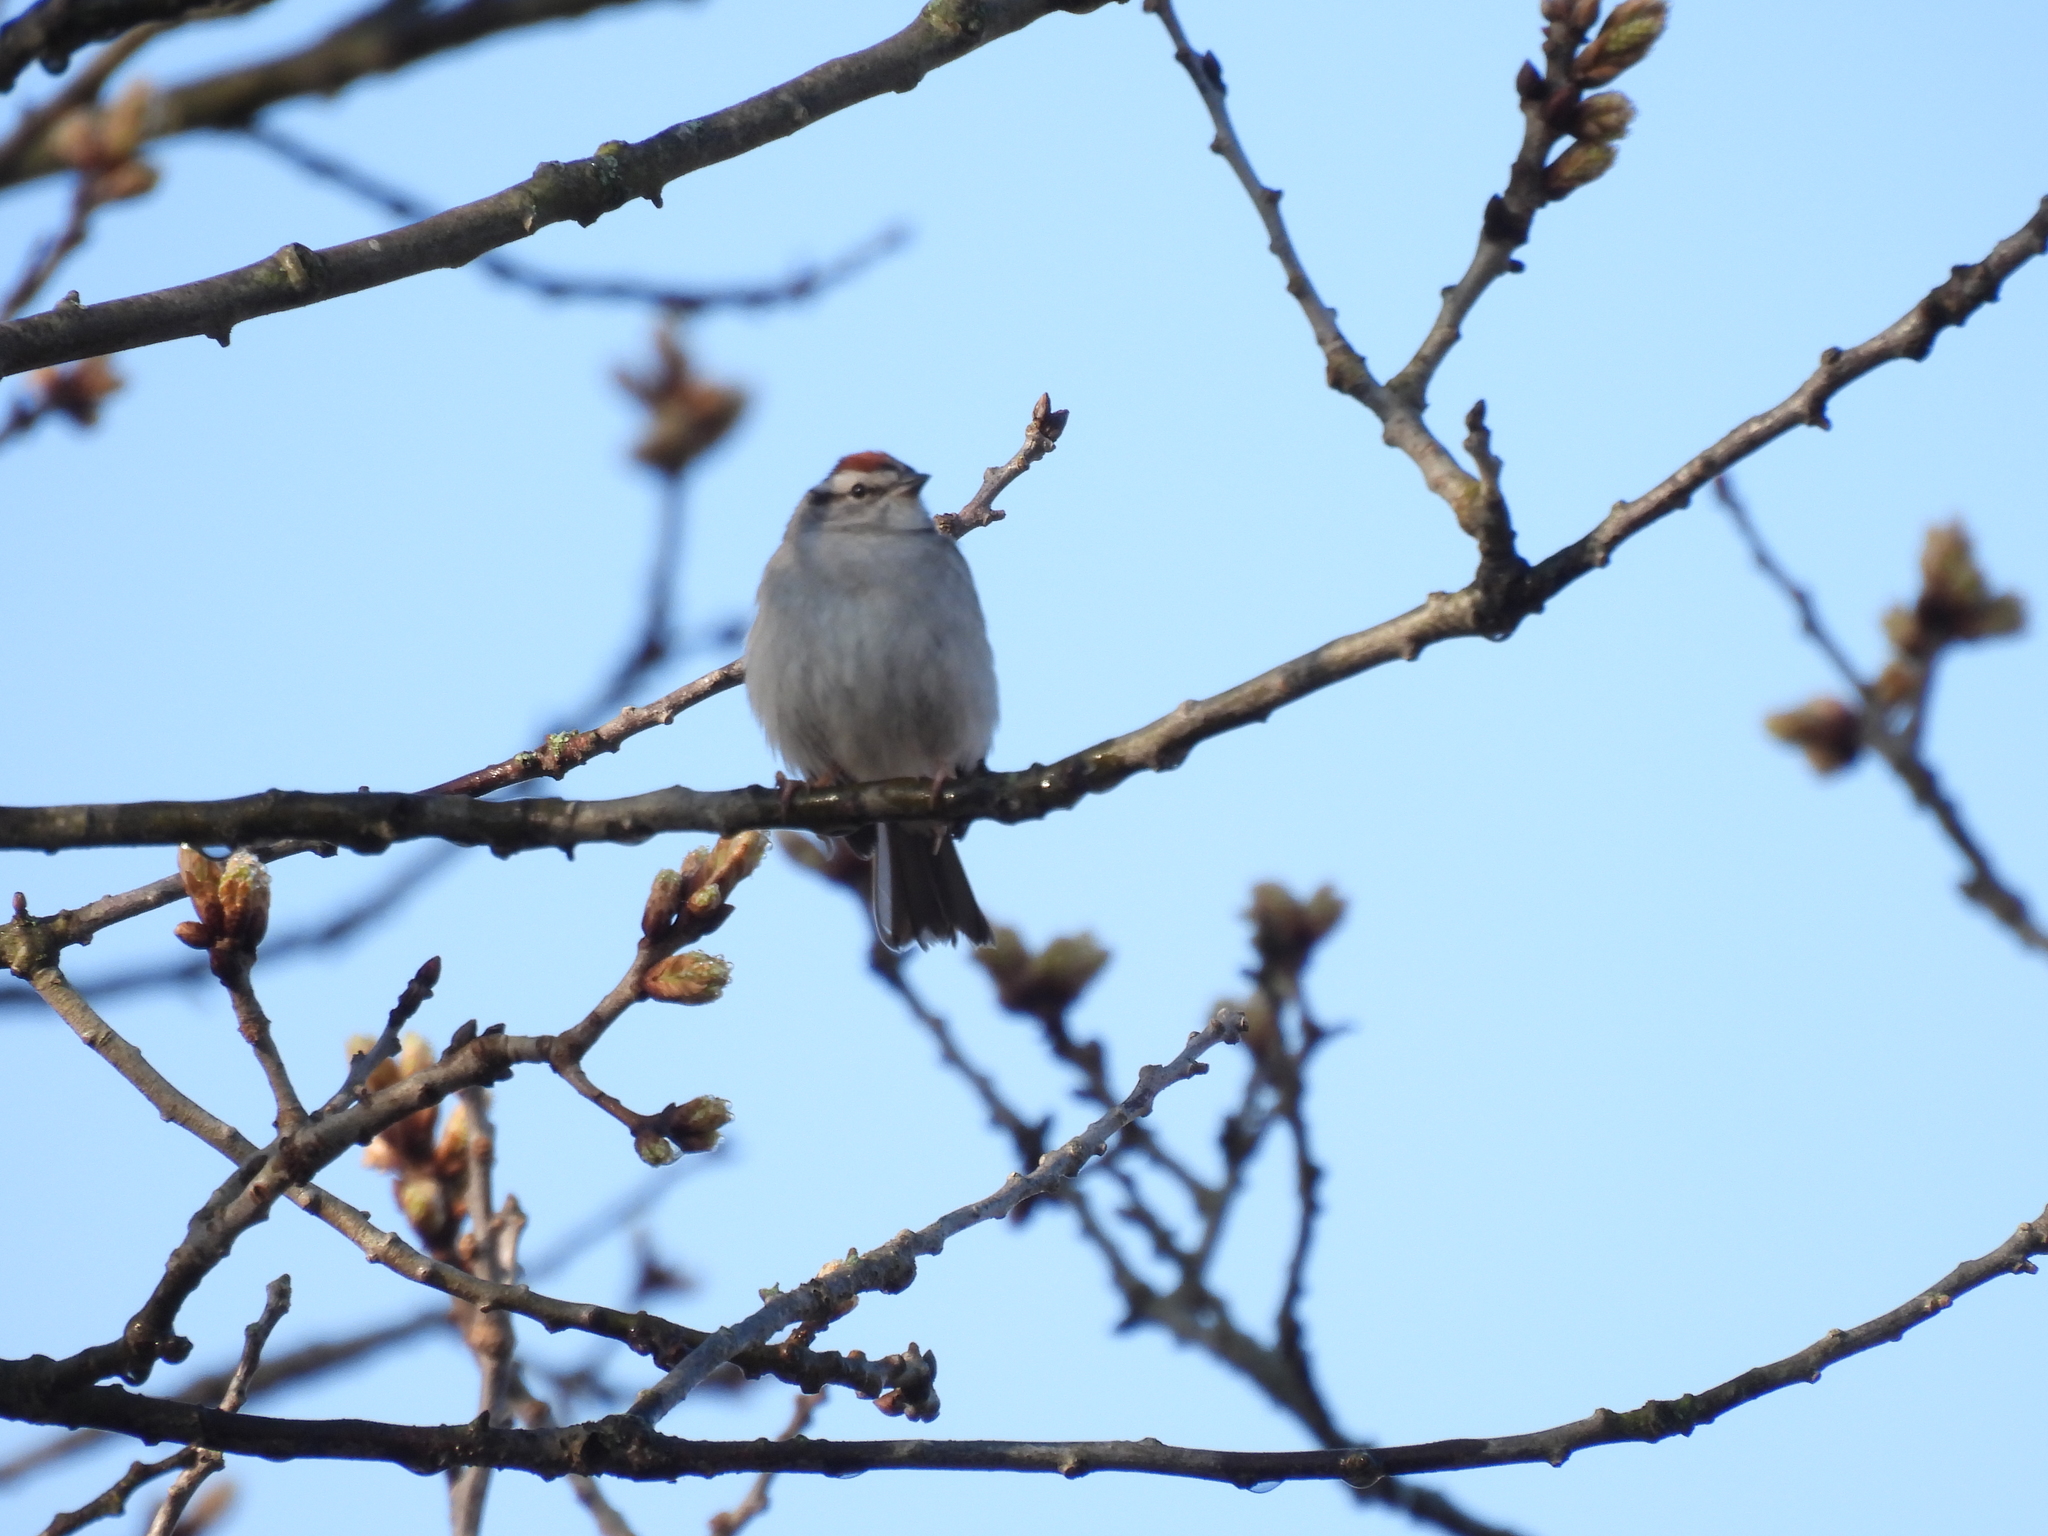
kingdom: Animalia
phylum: Chordata
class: Aves
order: Passeriformes
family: Passerellidae
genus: Spizella
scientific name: Spizella passerina
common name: Chipping sparrow
